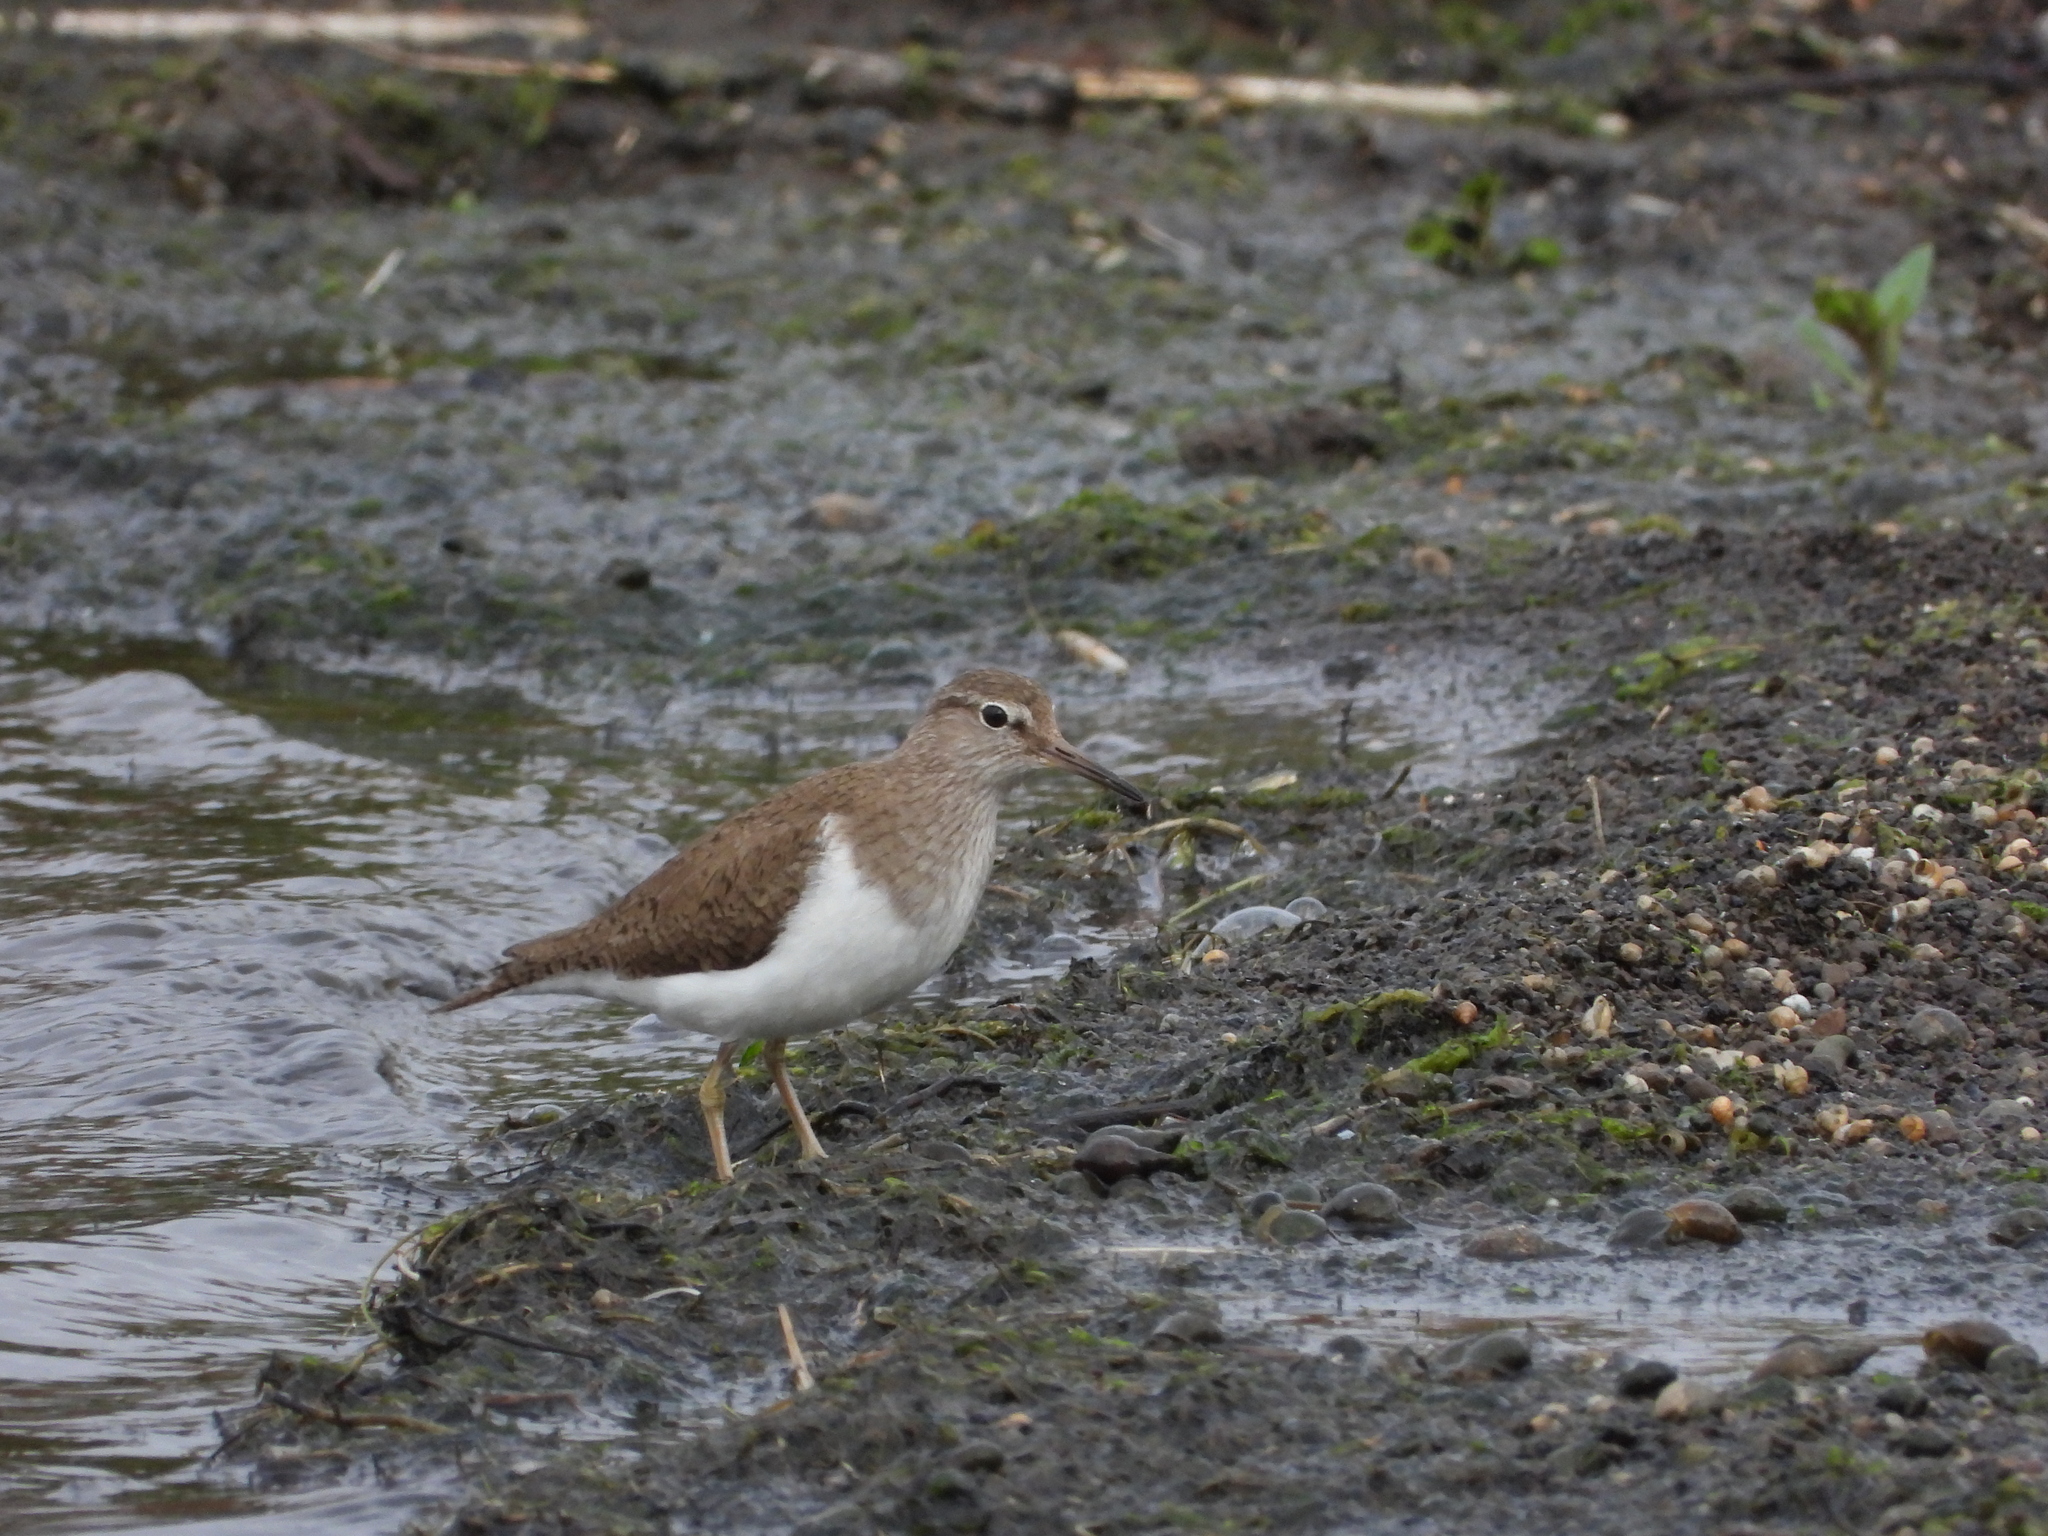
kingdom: Animalia
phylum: Chordata
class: Aves
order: Charadriiformes
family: Scolopacidae
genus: Actitis
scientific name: Actitis hypoleucos
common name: Common sandpiper
